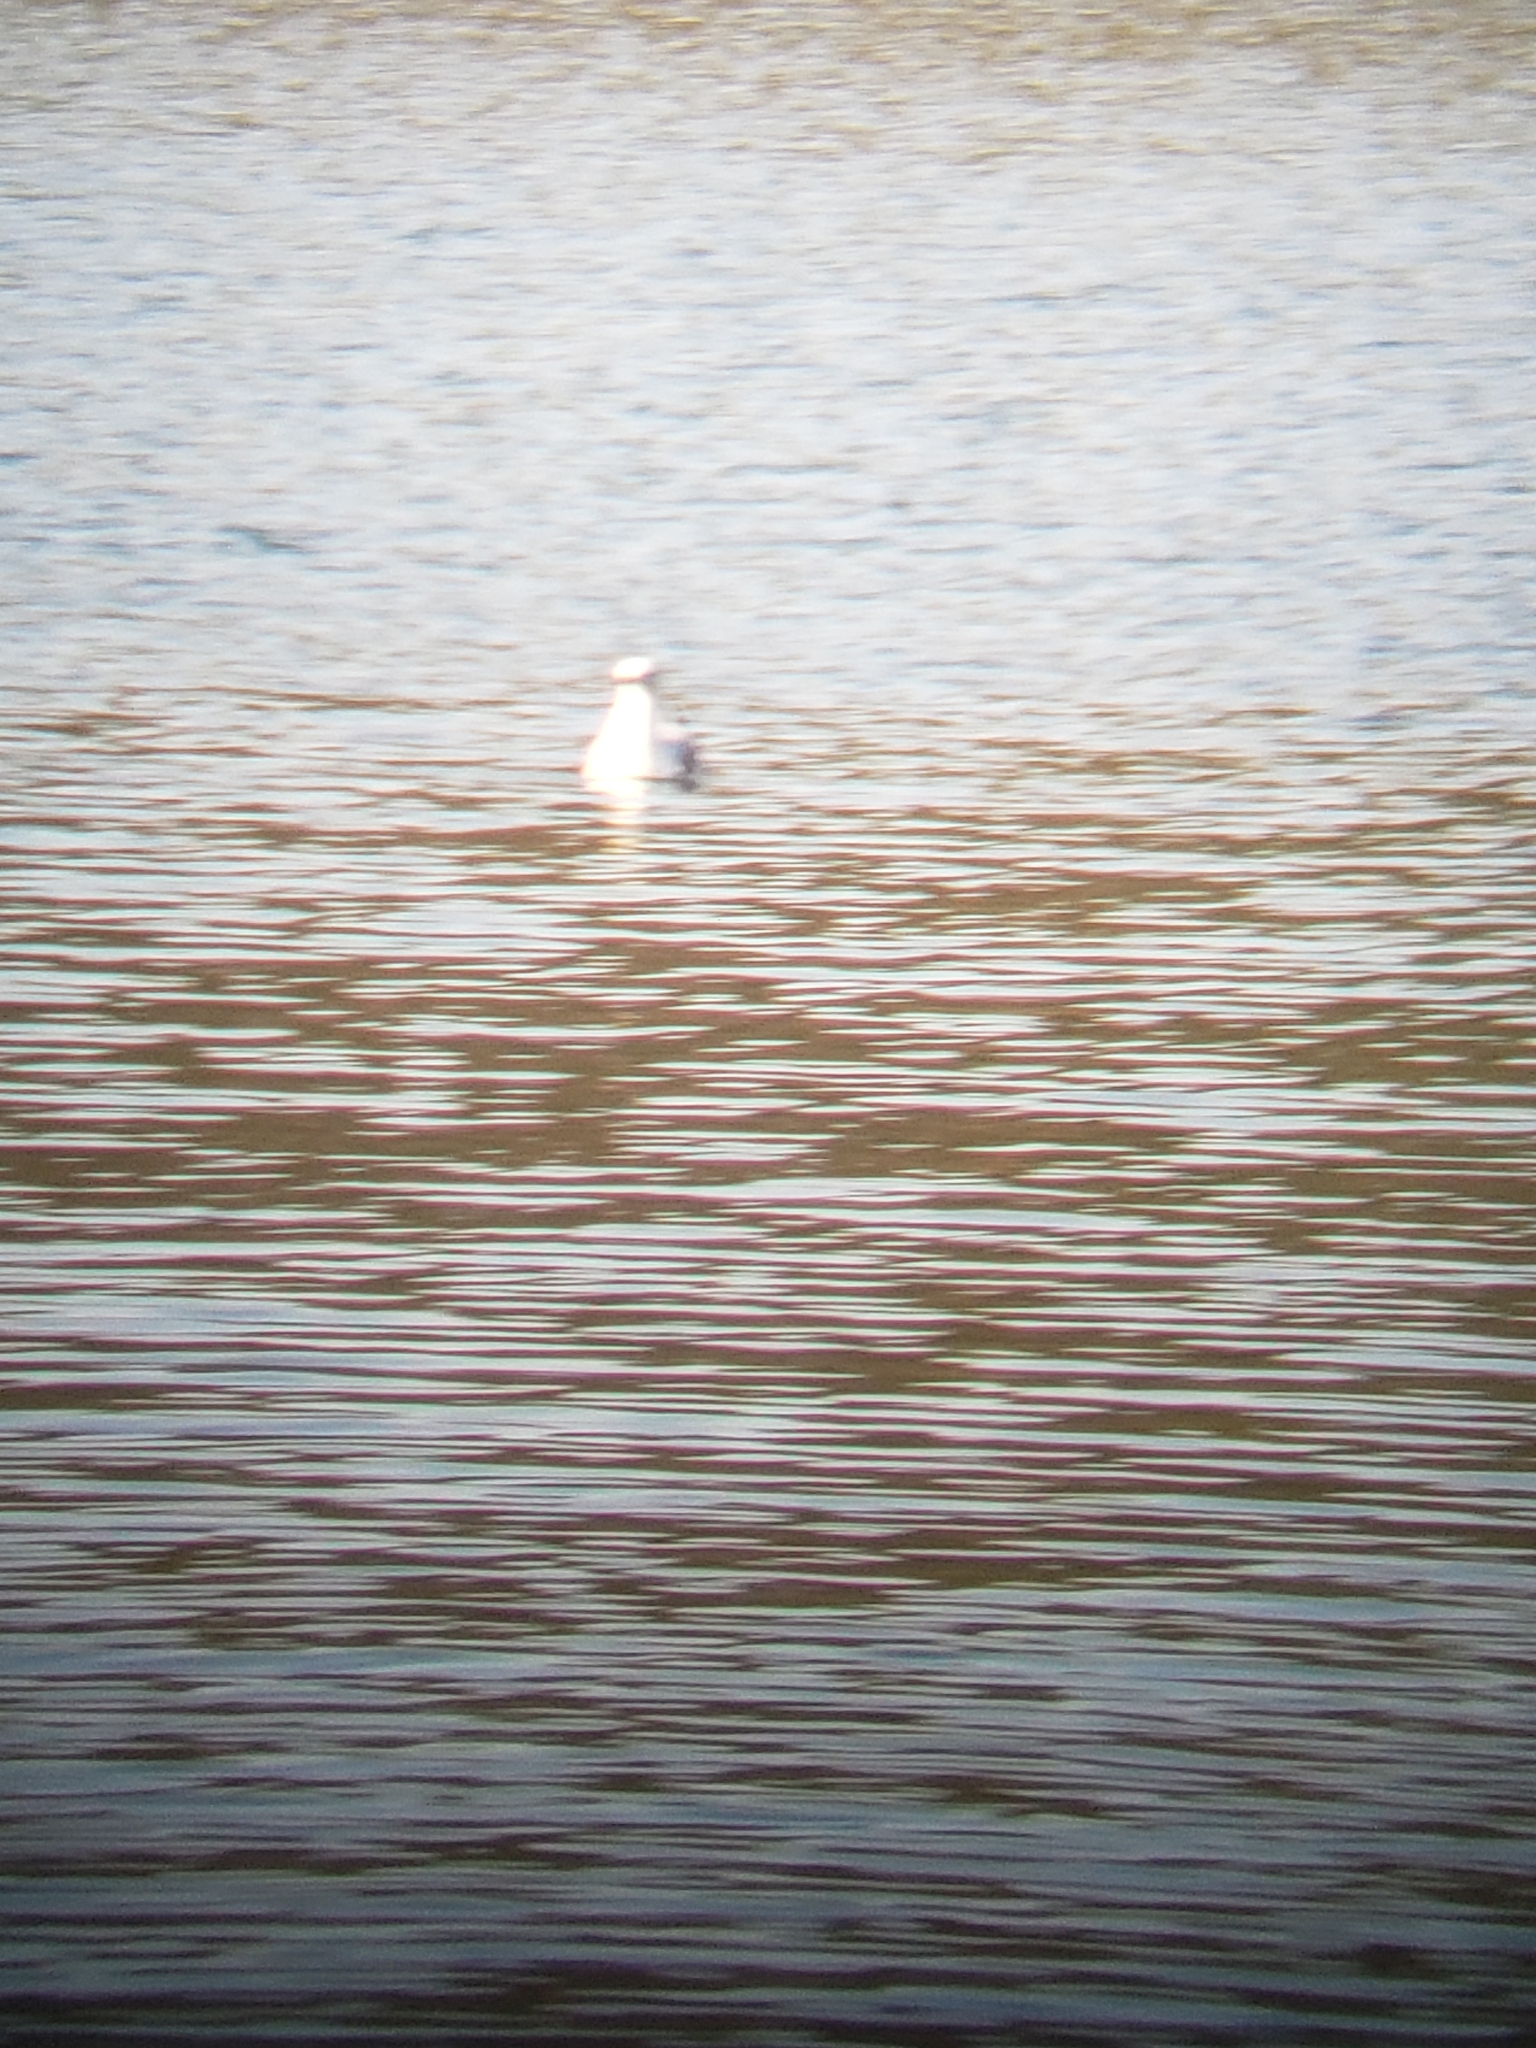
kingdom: Animalia
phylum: Chordata
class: Aves
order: Charadriiformes
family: Laridae
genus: Larus
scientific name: Larus delawarensis
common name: Ring-billed gull
